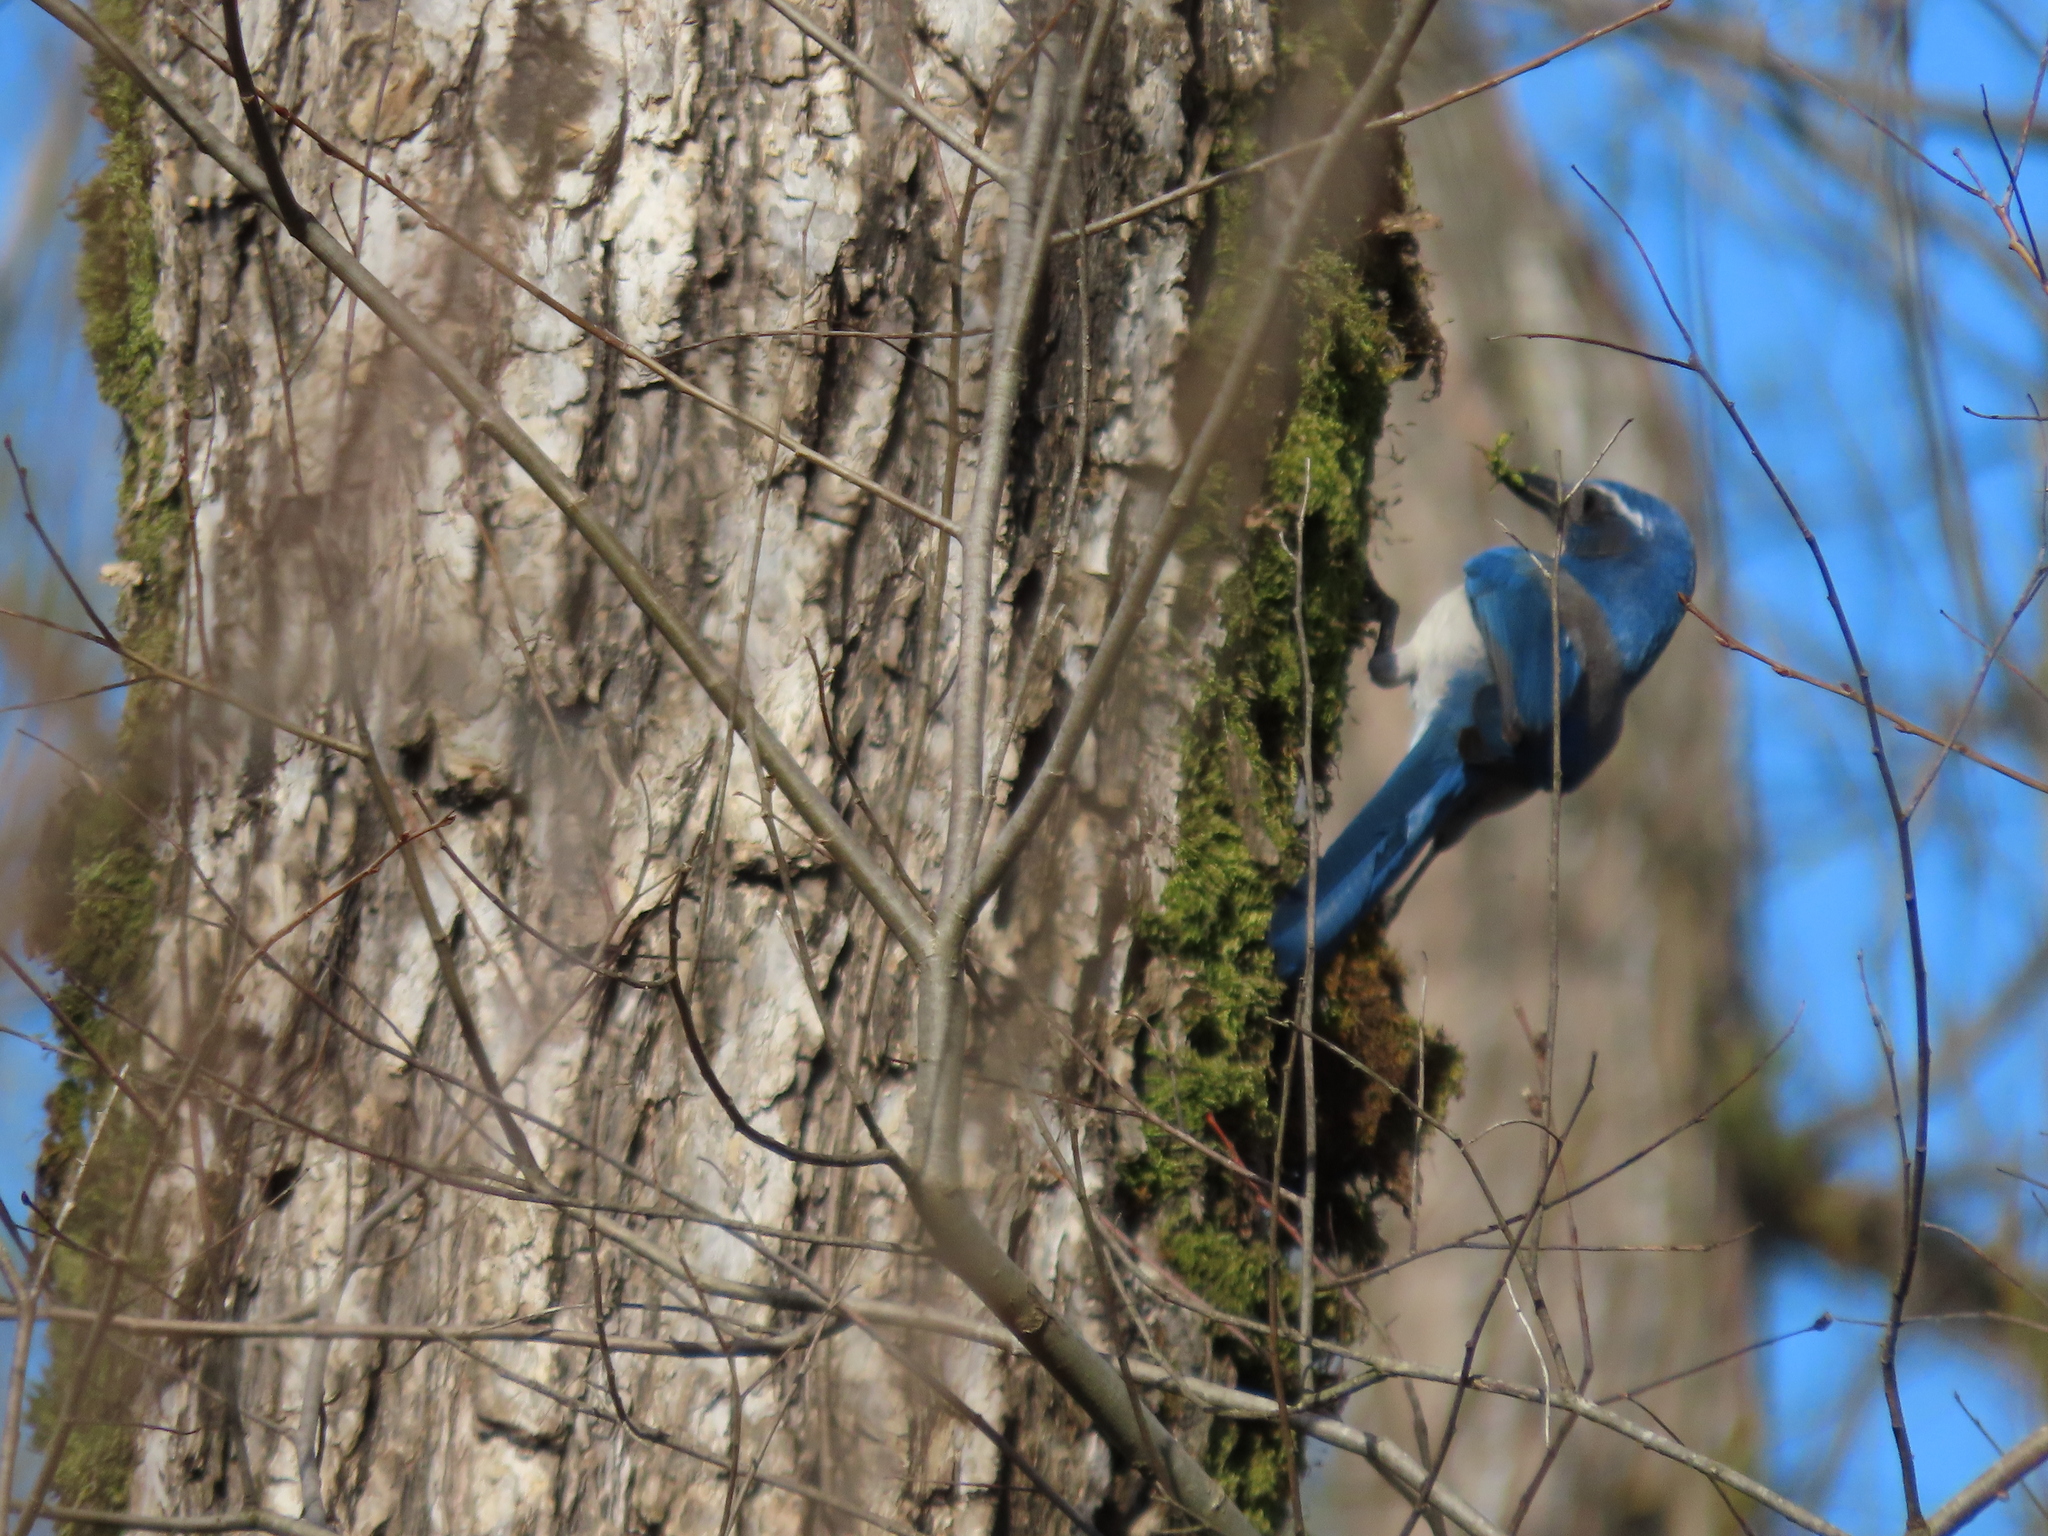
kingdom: Animalia
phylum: Chordata
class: Aves
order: Passeriformes
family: Corvidae
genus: Aphelocoma
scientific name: Aphelocoma californica
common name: California scrub-jay
